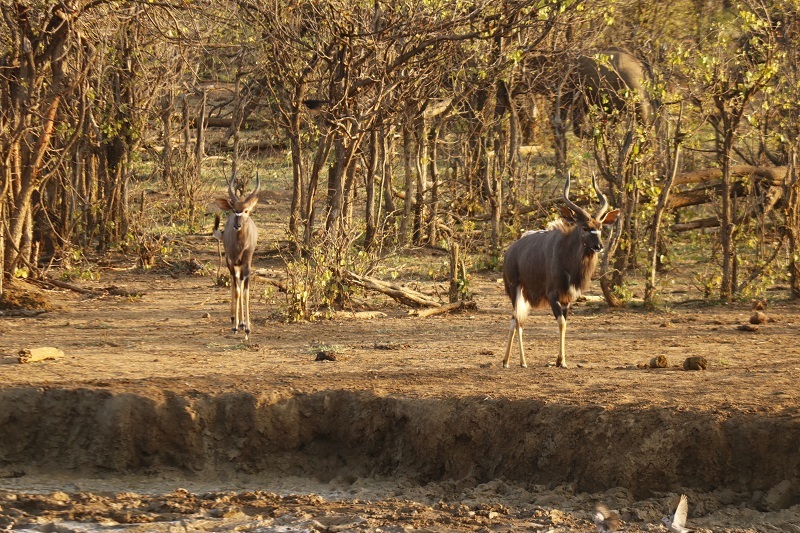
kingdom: Animalia
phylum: Chordata
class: Mammalia
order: Artiodactyla
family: Bovidae
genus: Tragelaphus
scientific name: Tragelaphus angasii
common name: Nyala
